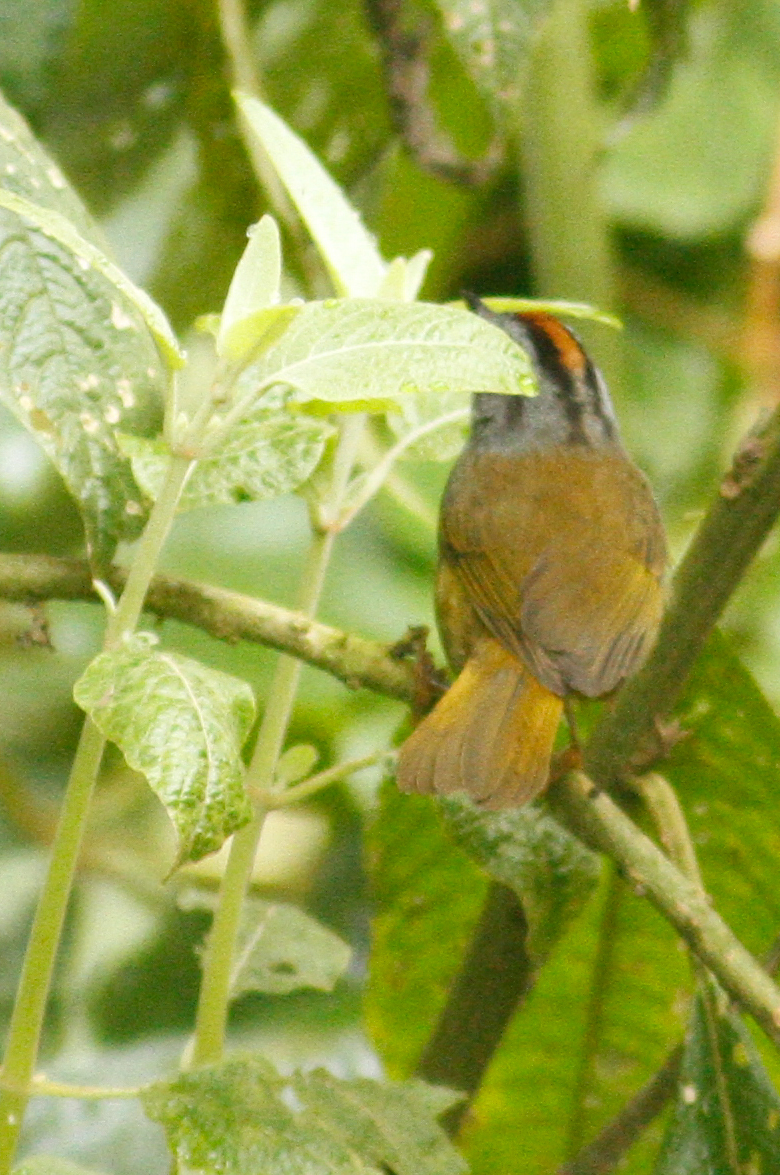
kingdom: Animalia
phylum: Chordata
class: Aves
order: Passeriformes
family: Parulidae
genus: Myiothlypis
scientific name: Myiothlypis coronata
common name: Russet-crowned warbler
